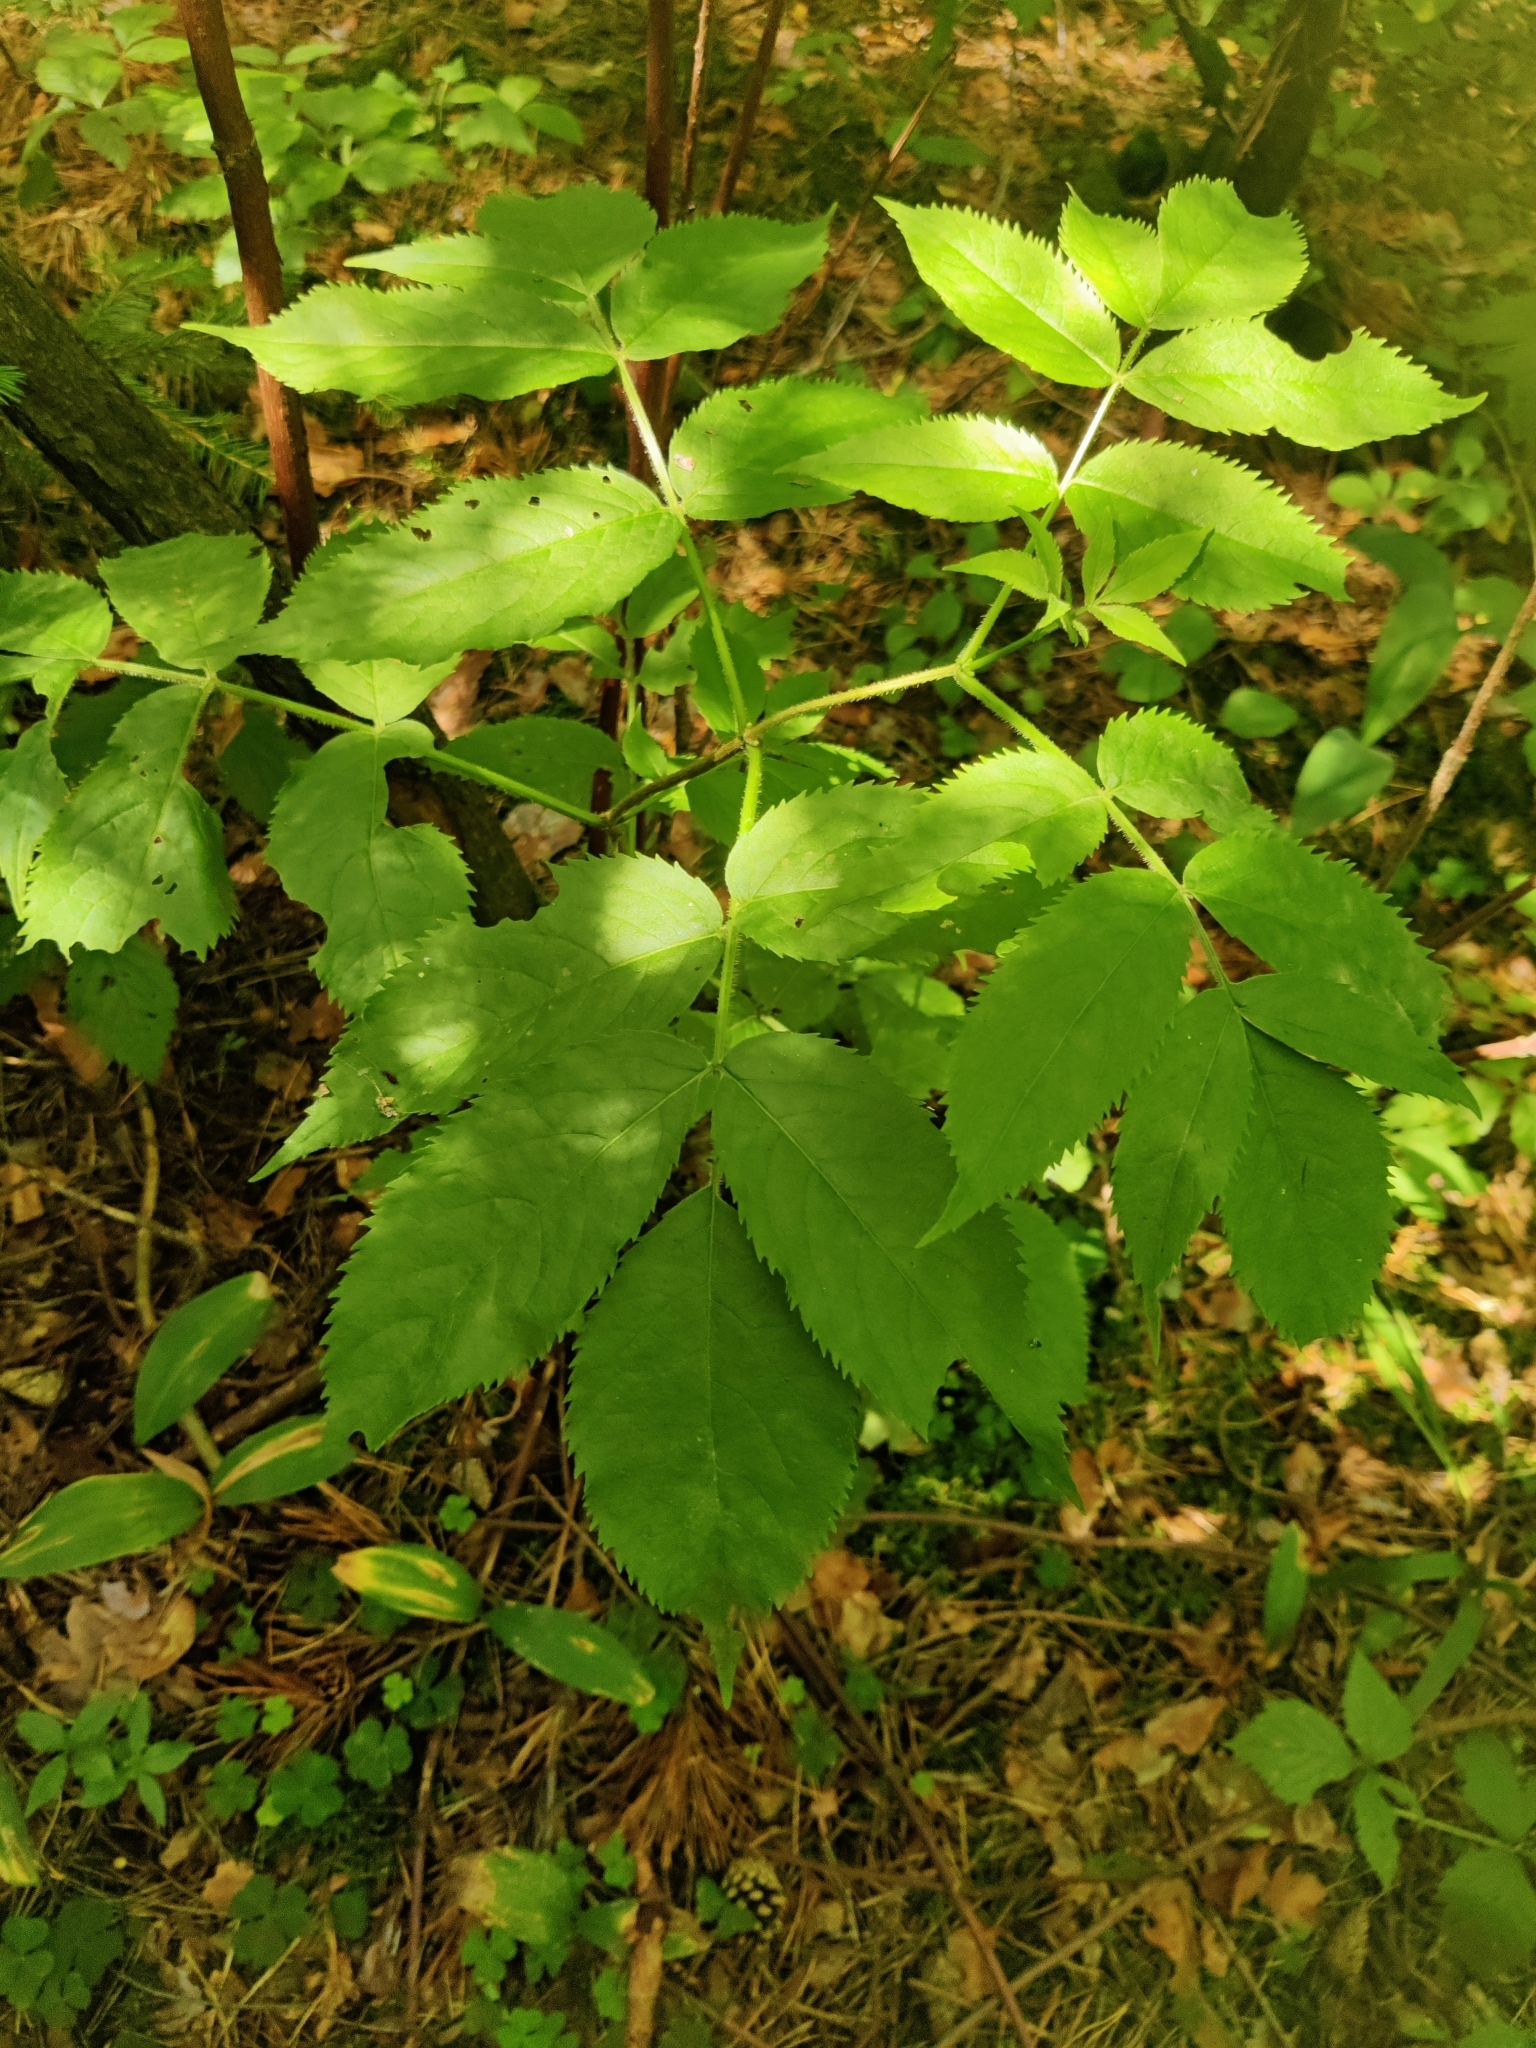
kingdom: Plantae
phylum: Tracheophyta
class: Magnoliopsida
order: Dipsacales
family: Viburnaceae
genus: Sambucus
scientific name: Sambucus racemosa
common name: Red-berried elder
